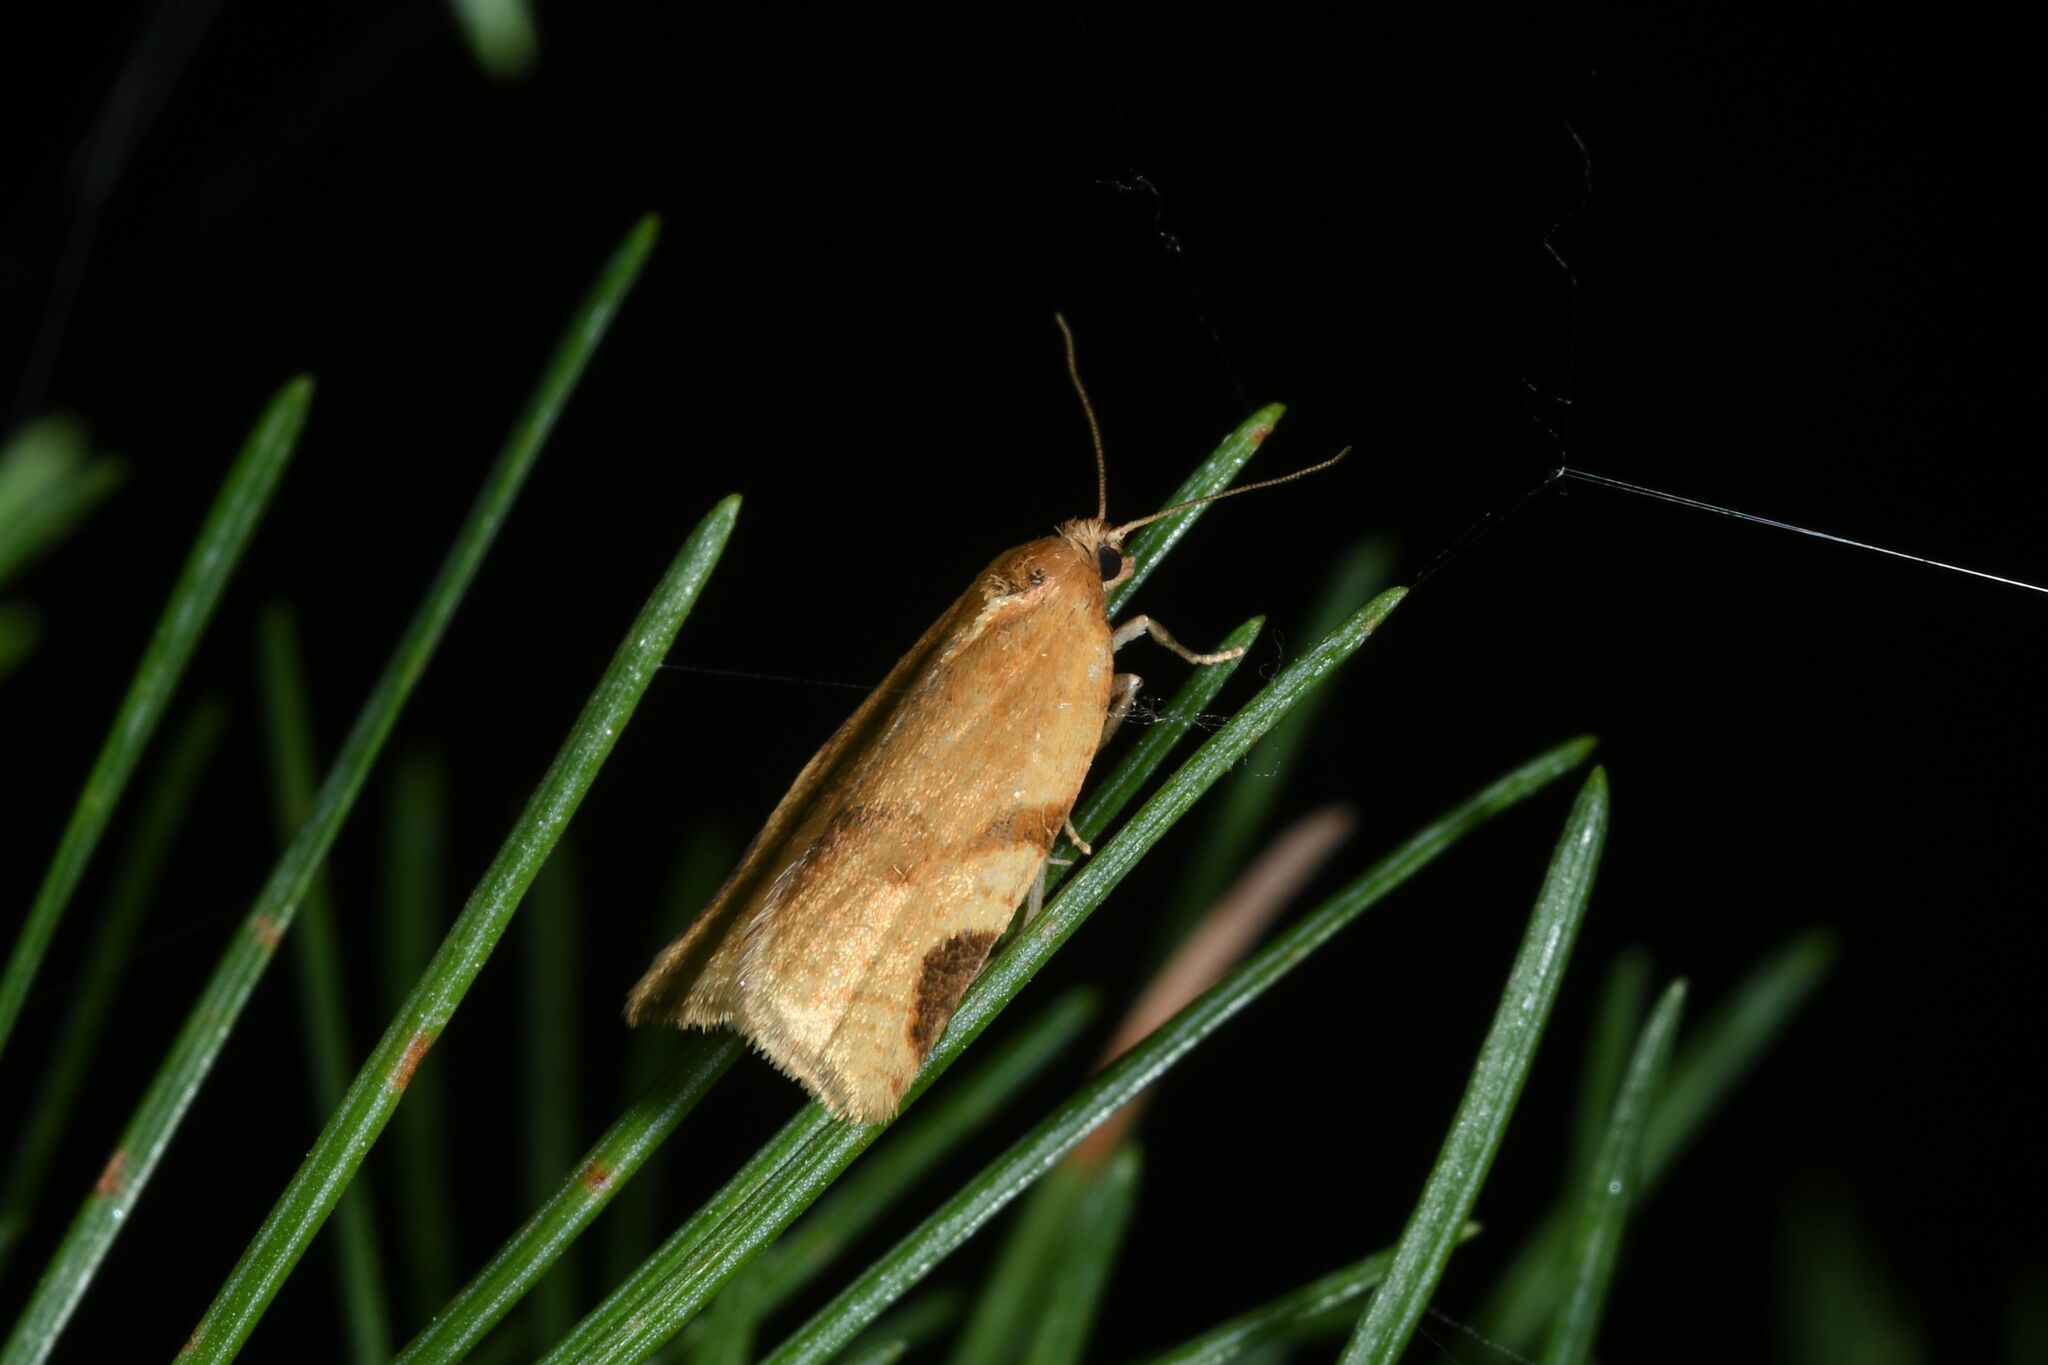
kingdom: Animalia
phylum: Arthropoda
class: Insecta
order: Lepidoptera
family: Tortricidae
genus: Paramesia
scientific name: Paramesia gnomana
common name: Small straw twist
